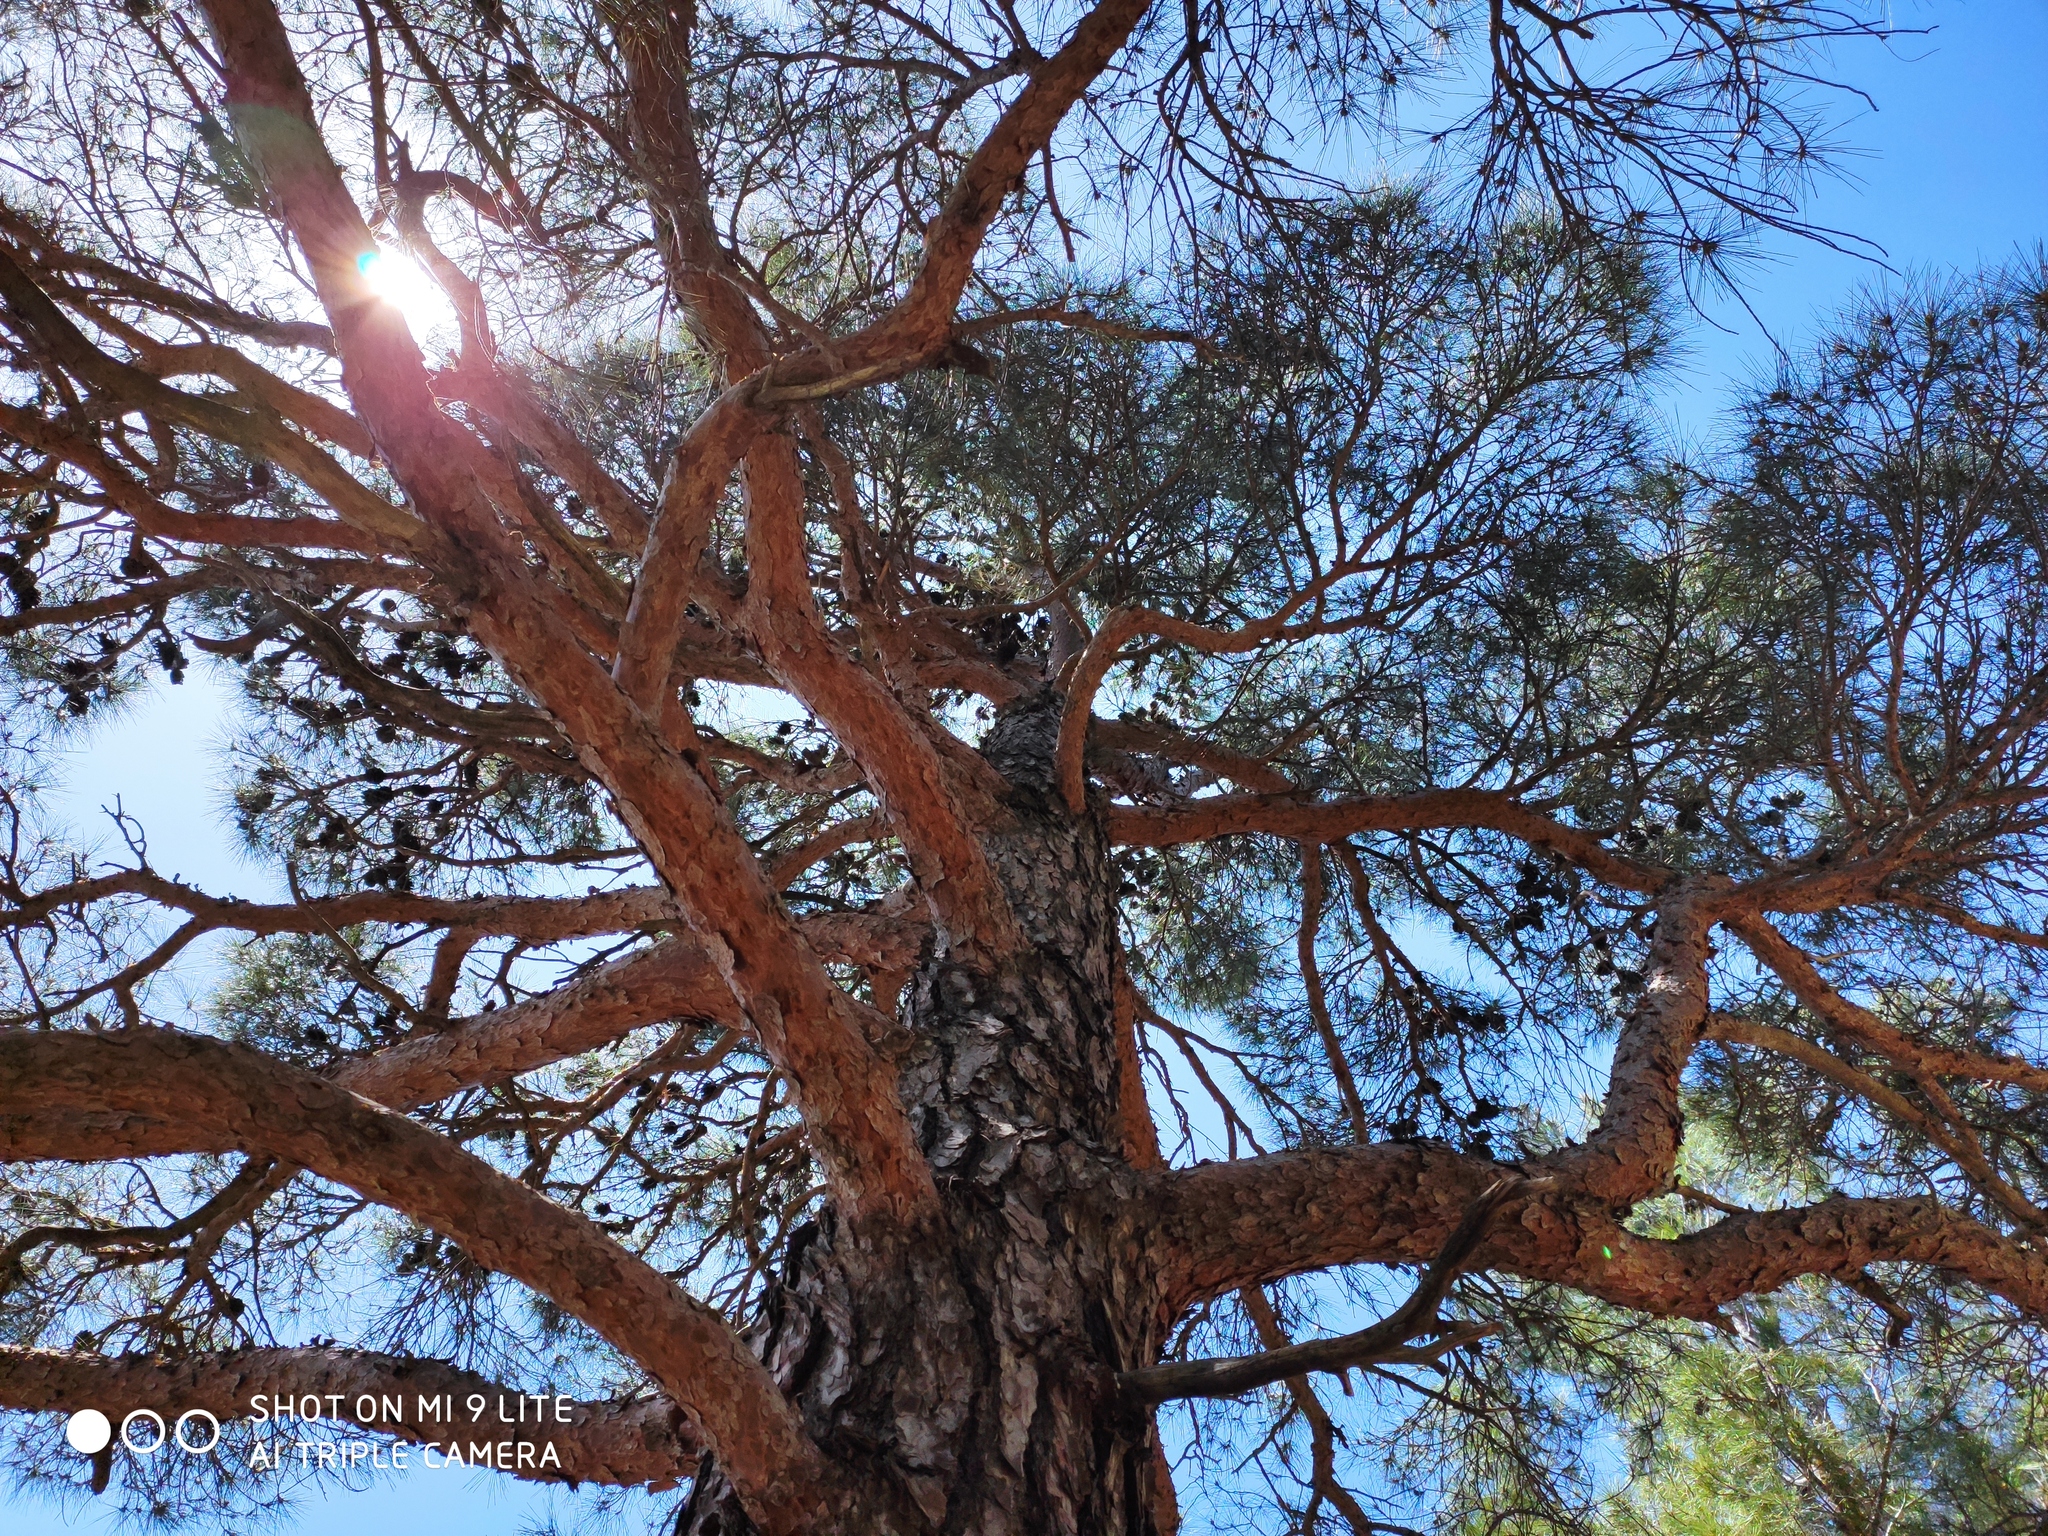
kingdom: Plantae
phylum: Tracheophyta
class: Pinopsida
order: Pinales
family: Pinaceae
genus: Pinus
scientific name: Pinus brutia
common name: Turkish pine
